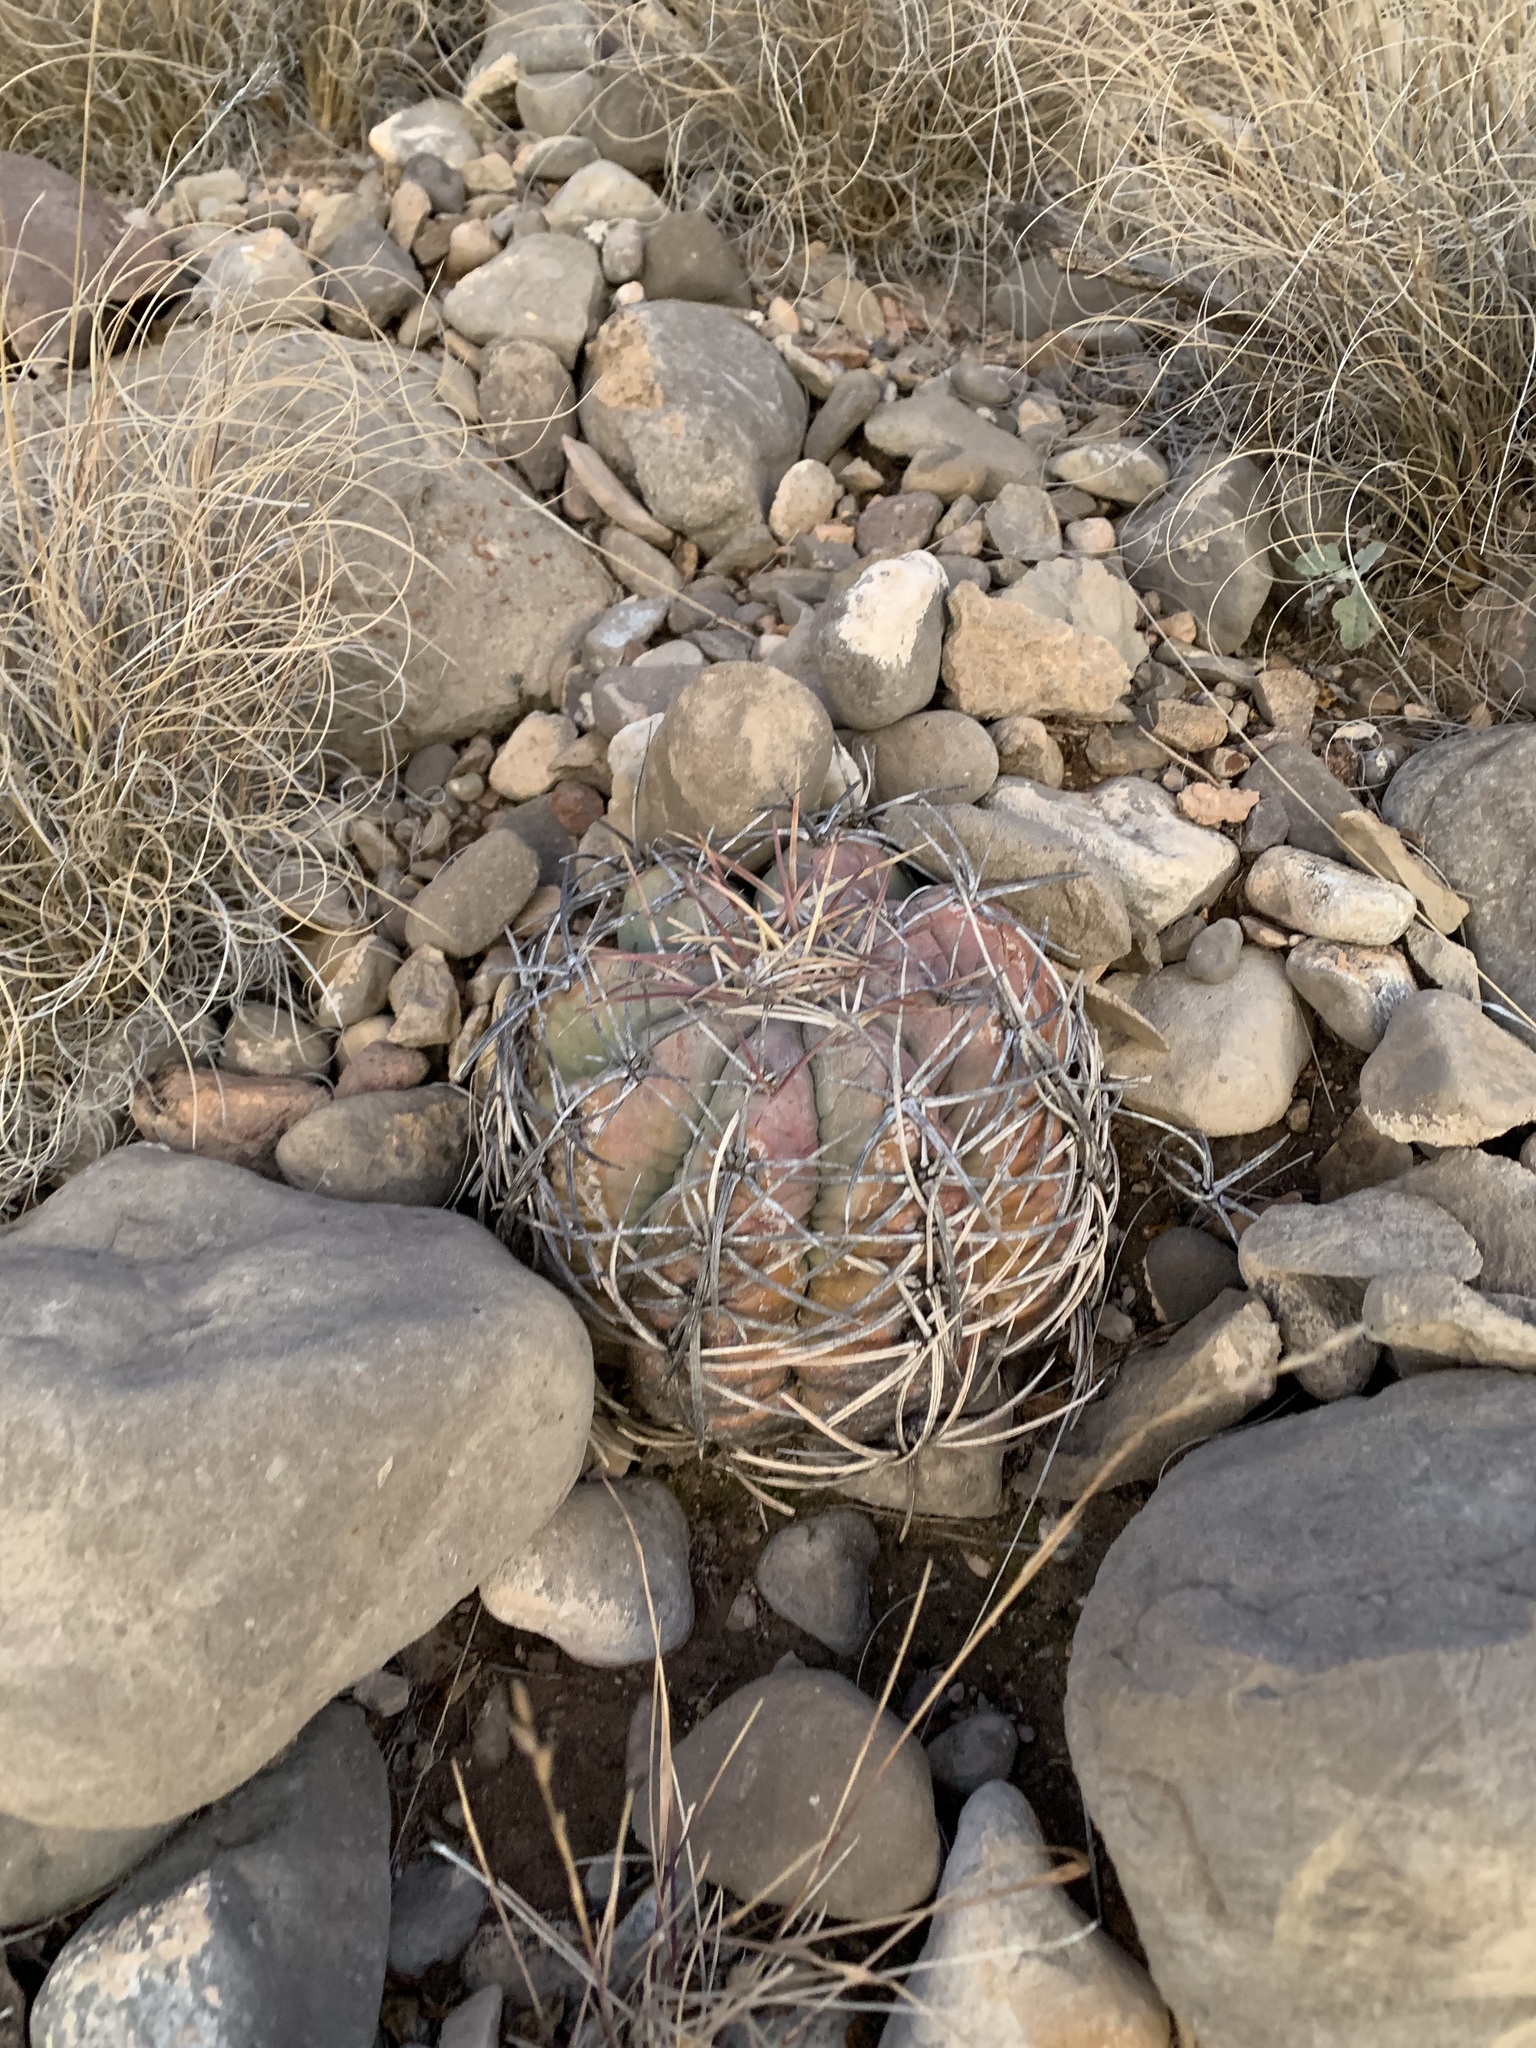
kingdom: Plantae
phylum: Tracheophyta
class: Magnoliopsida
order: Caryophyllales
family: Cactaceae
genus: Echinocactus
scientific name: Echinocactus horizonthalonius
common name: Devilshead
